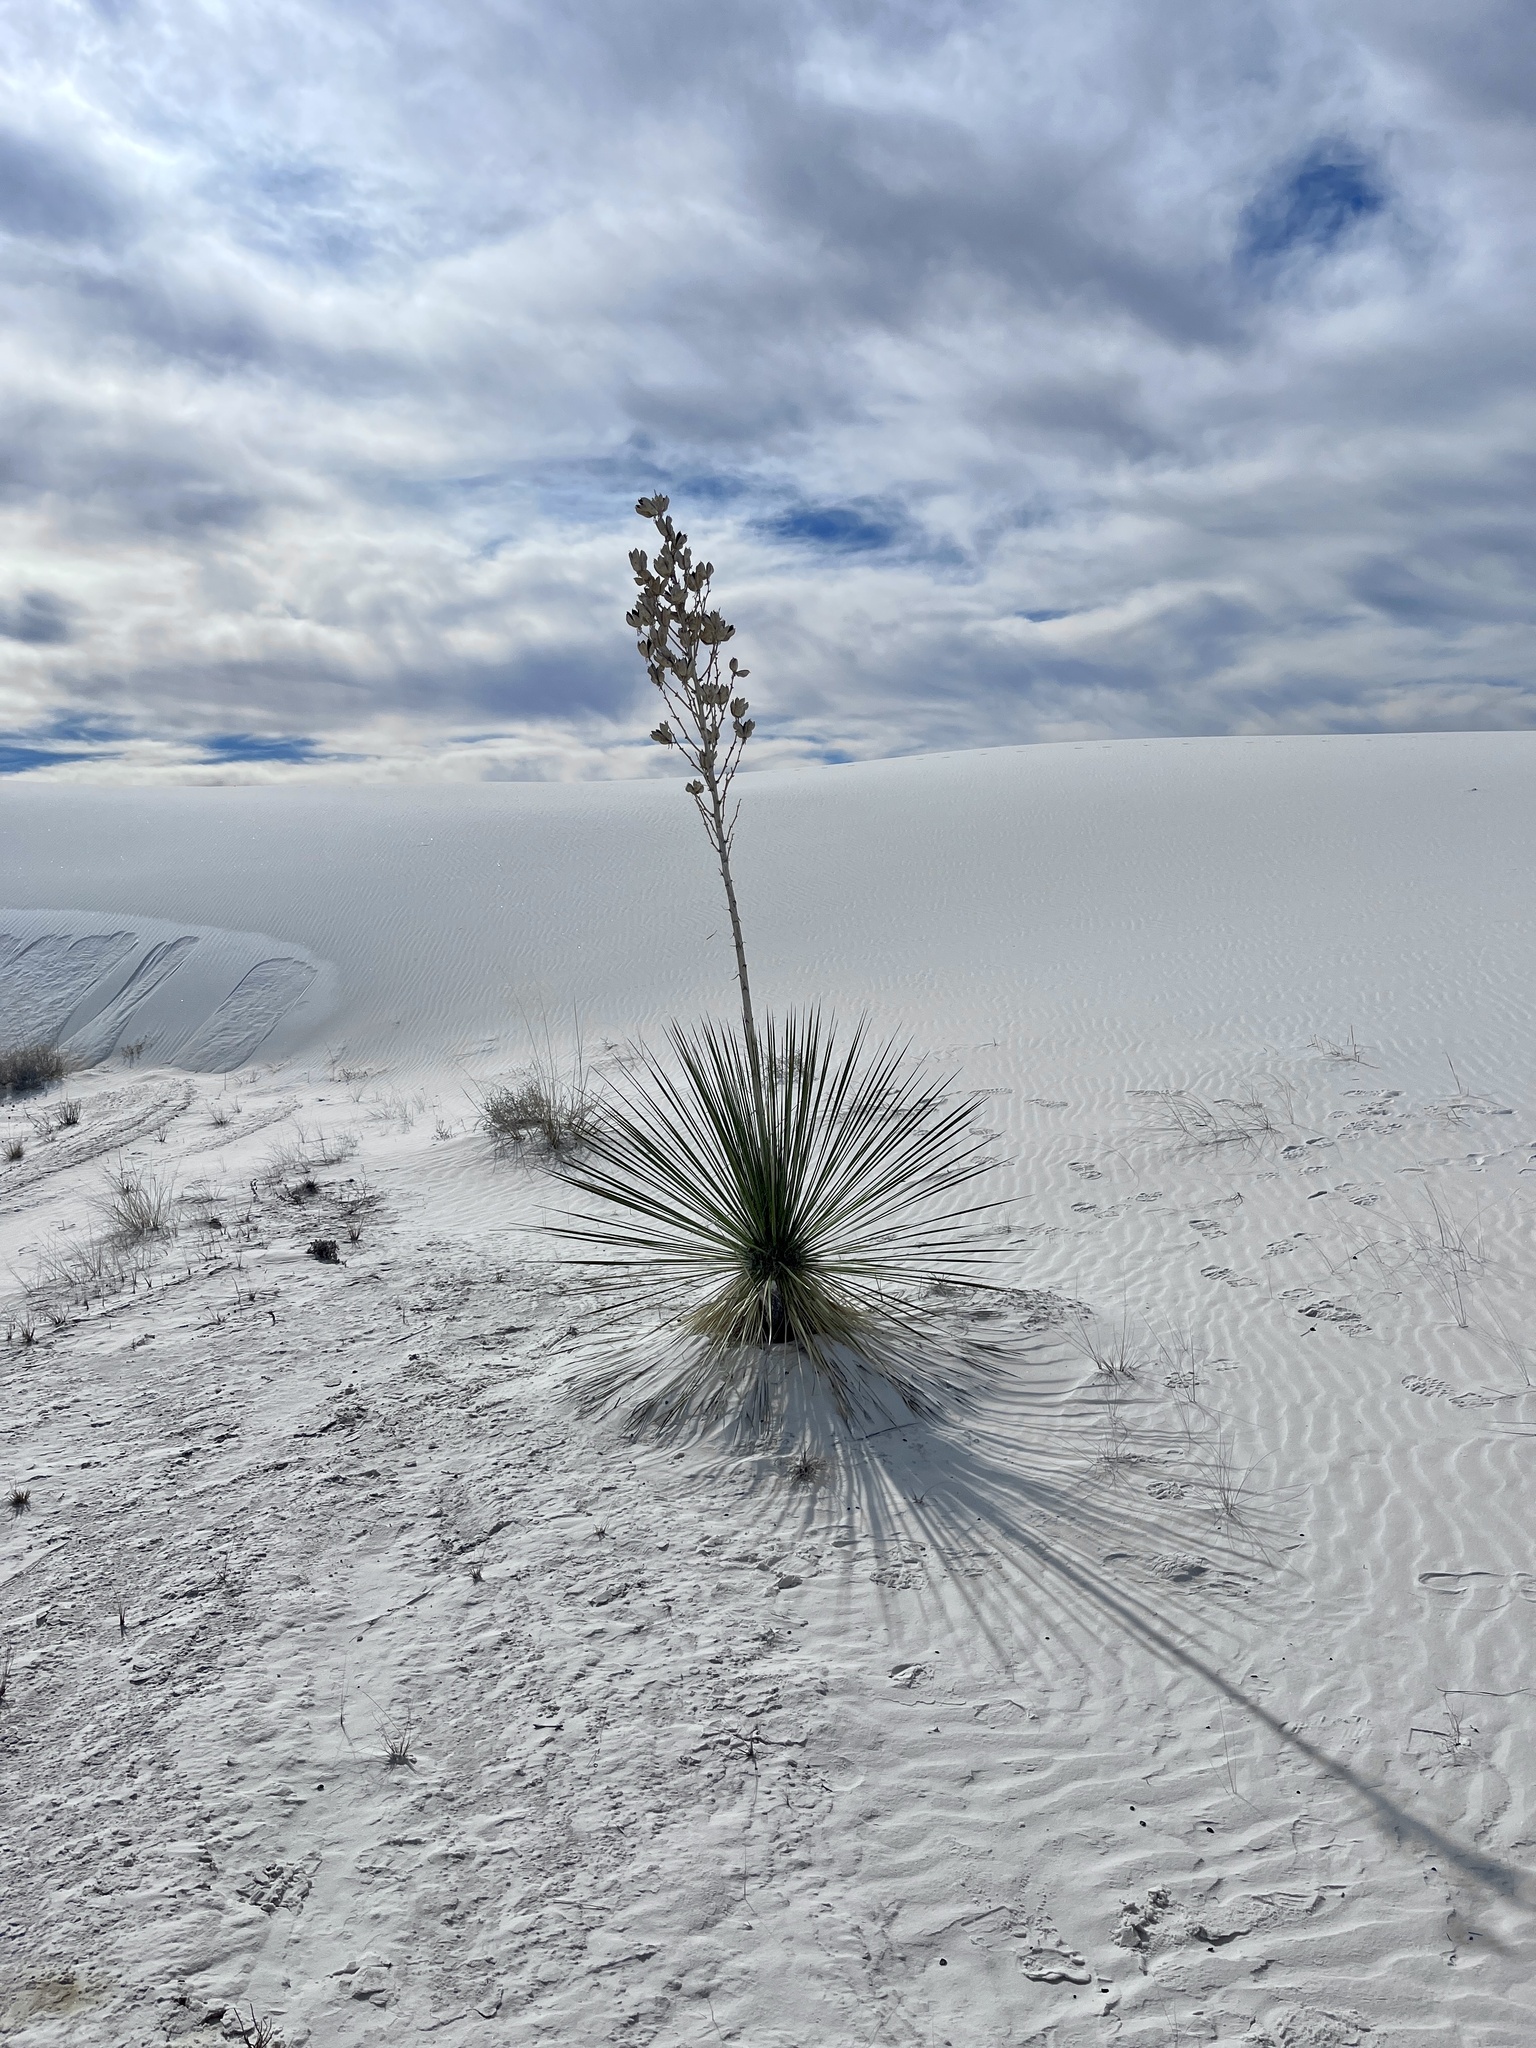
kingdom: Plantae
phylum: Tracheophyta
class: Liliopsida
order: Asparagales
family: Asparagaceae
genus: Yucca
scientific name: Yucca elata
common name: Palmella
